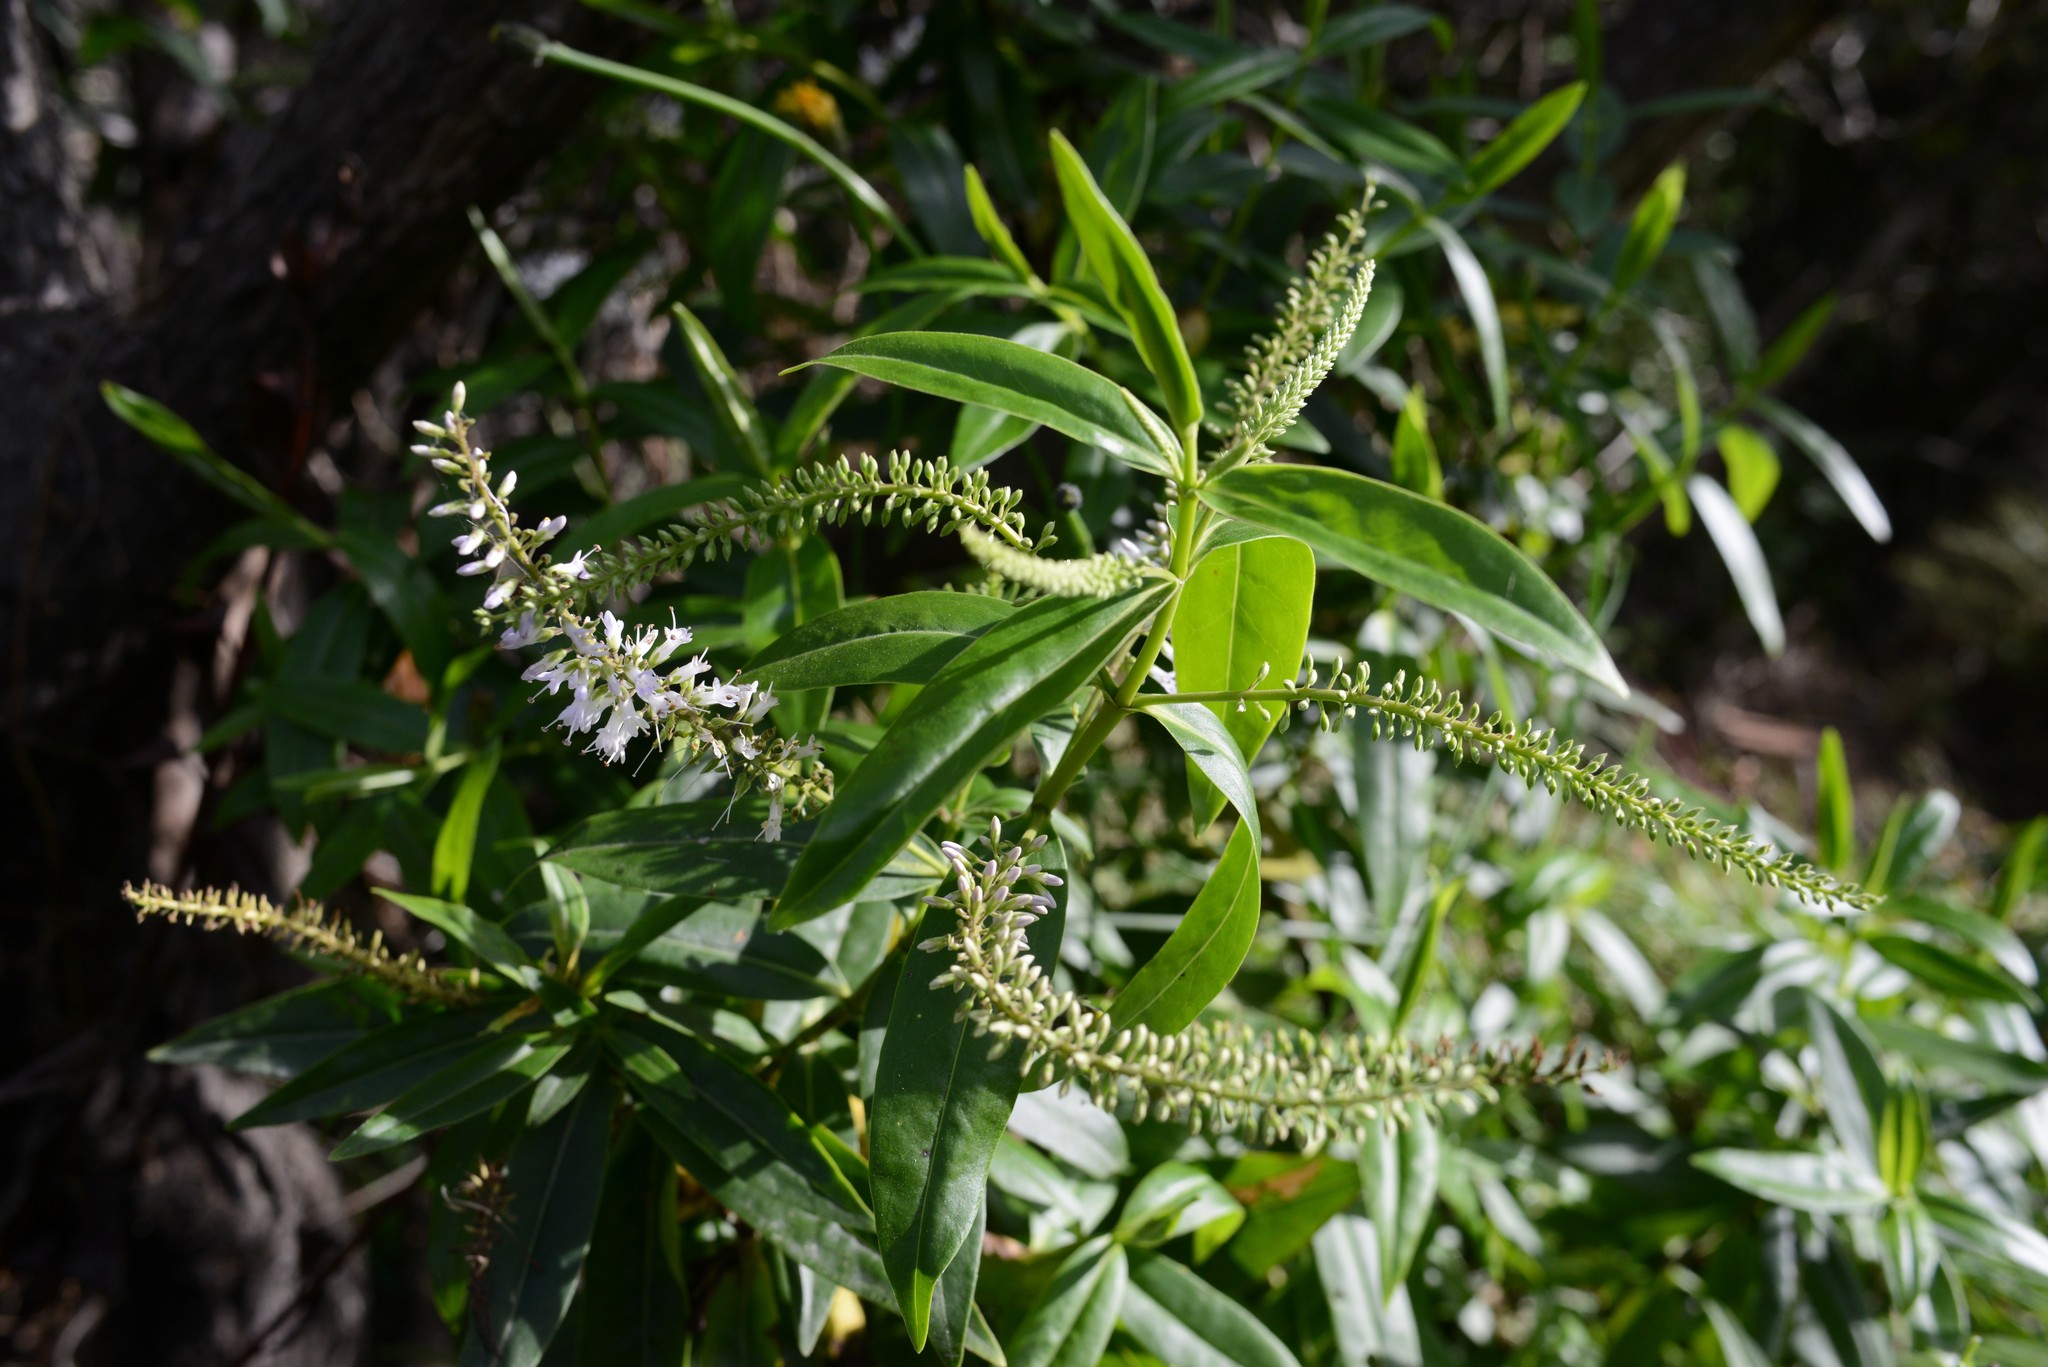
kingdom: Plantae
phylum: Tracheophyta
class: Magnoliopsida
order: Lamiales
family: Plantaginaceae
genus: Veronica
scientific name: Veronica salicifolia
